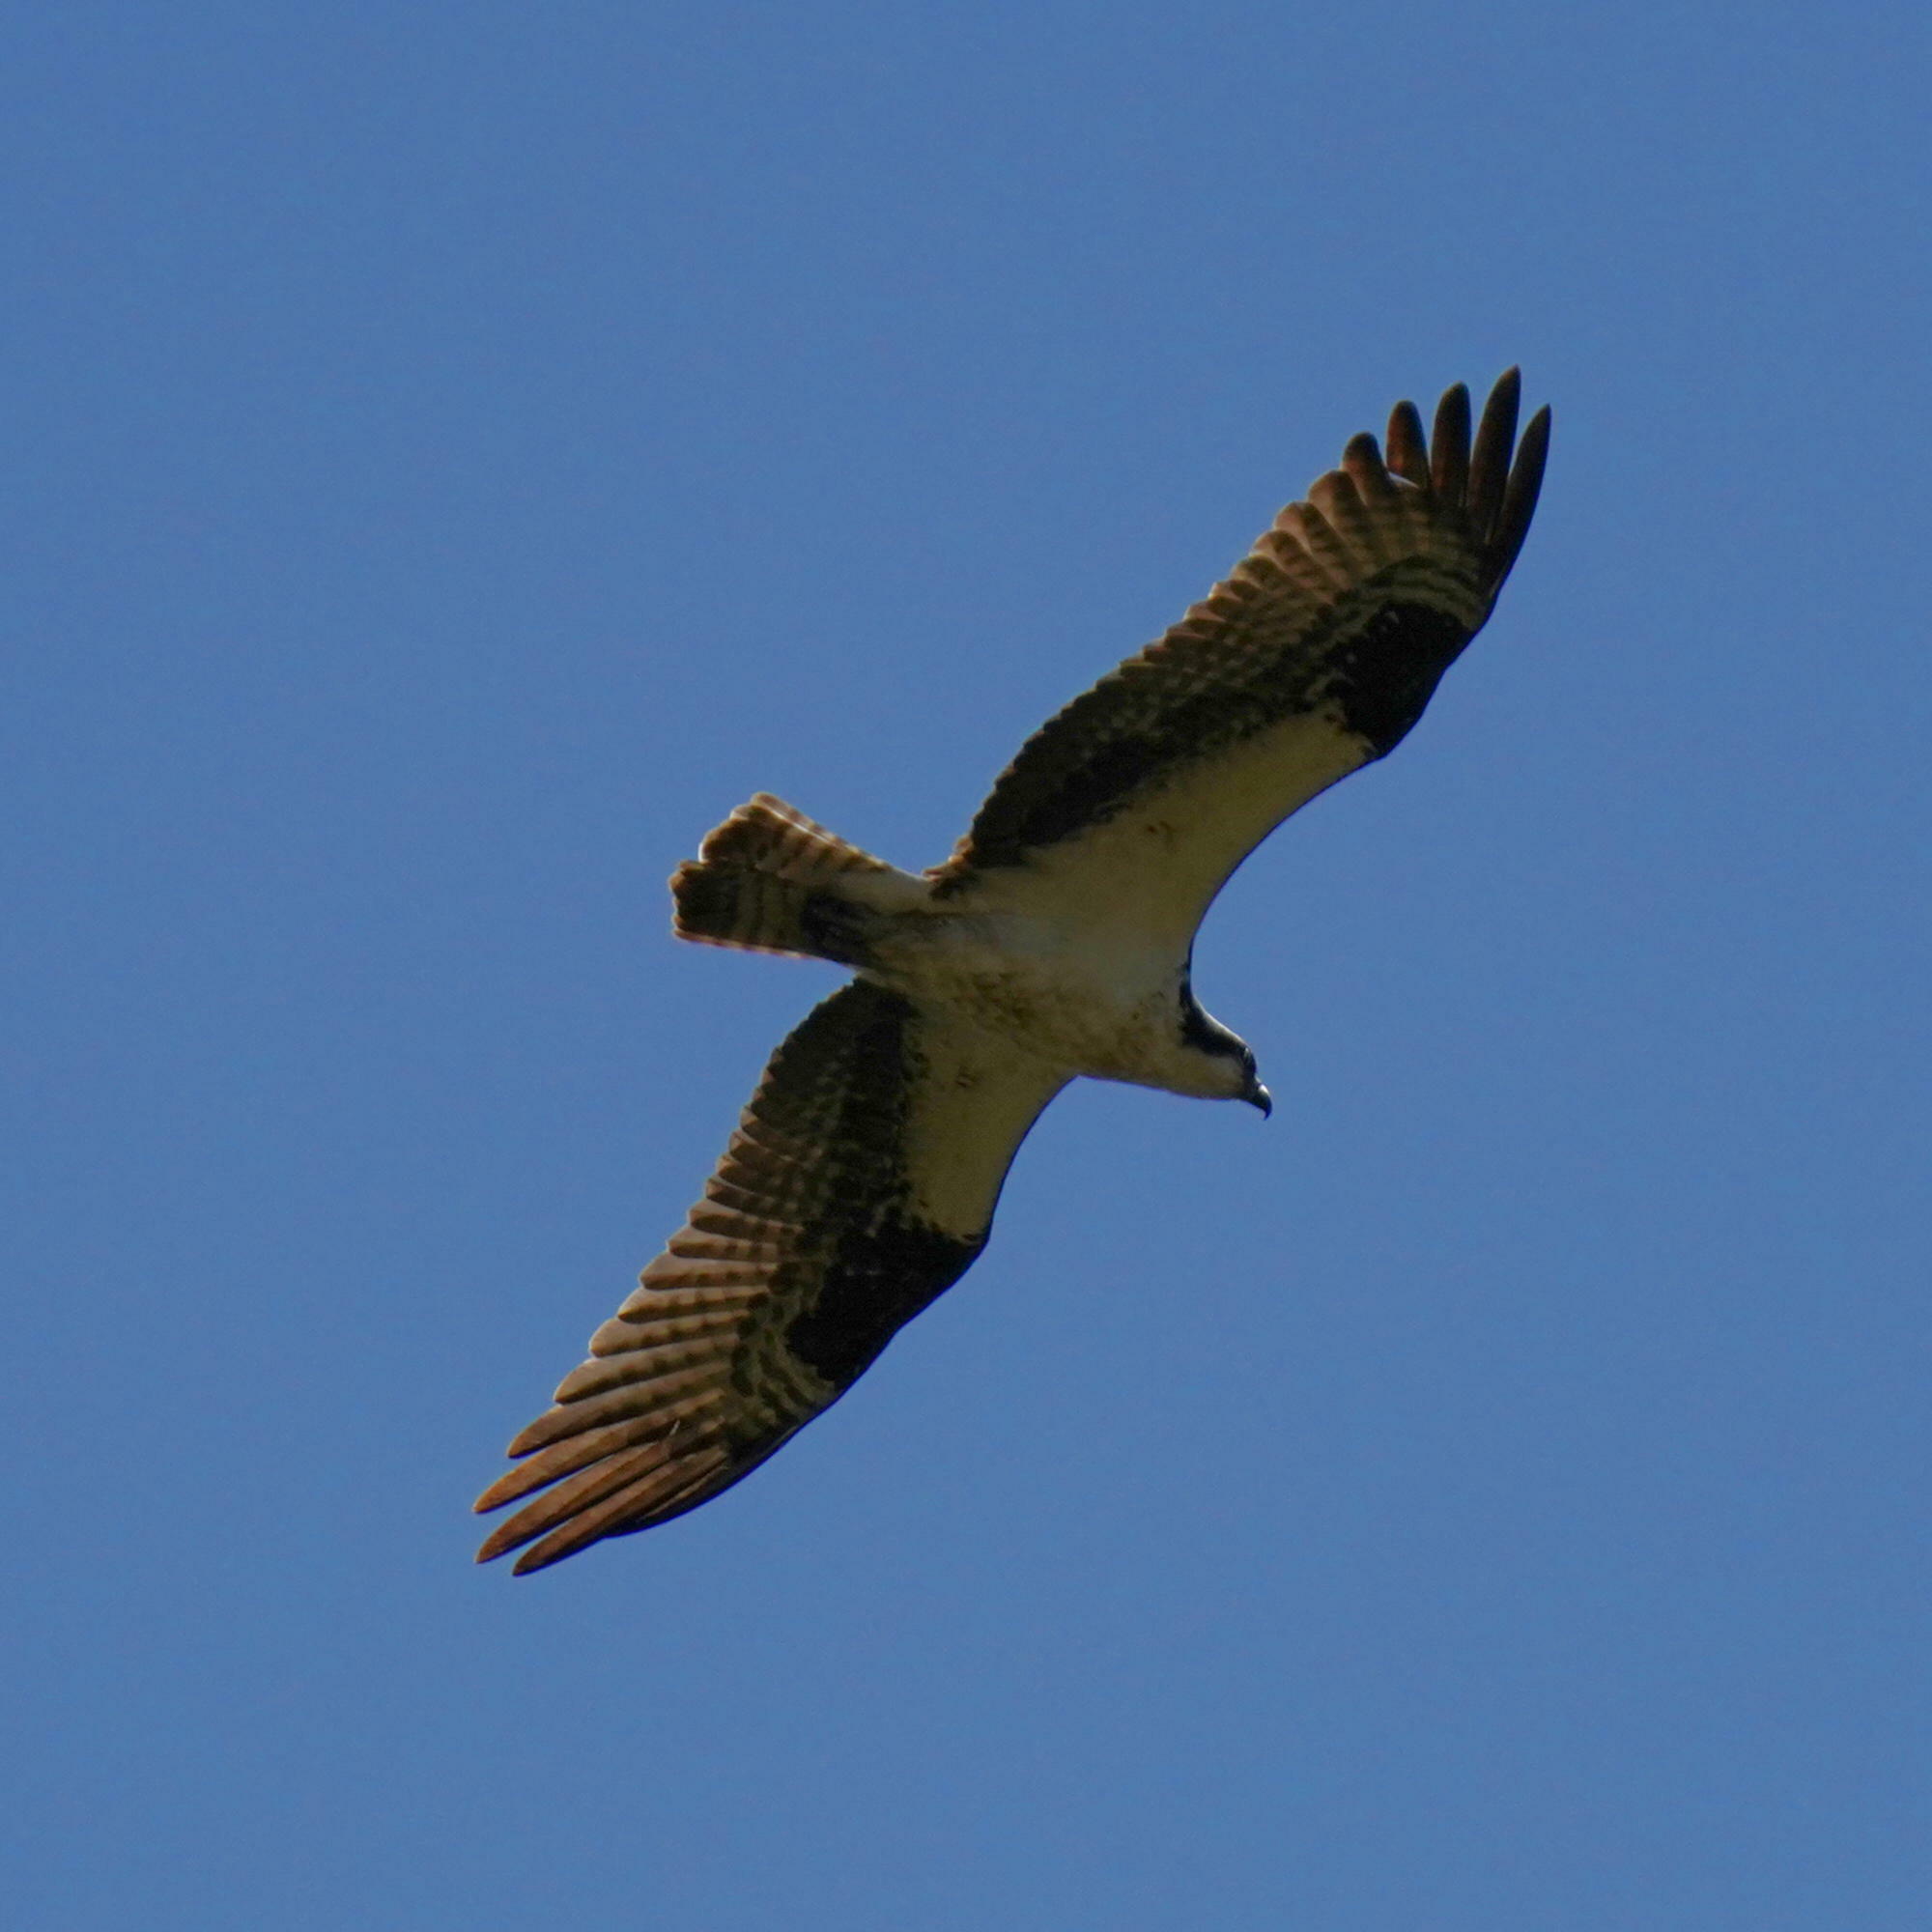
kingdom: Animalia
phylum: Chordata
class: Aves
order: Accipitriformes
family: Pandionidae
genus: Pandion
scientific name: Pandion haliaetus
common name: Osprey
